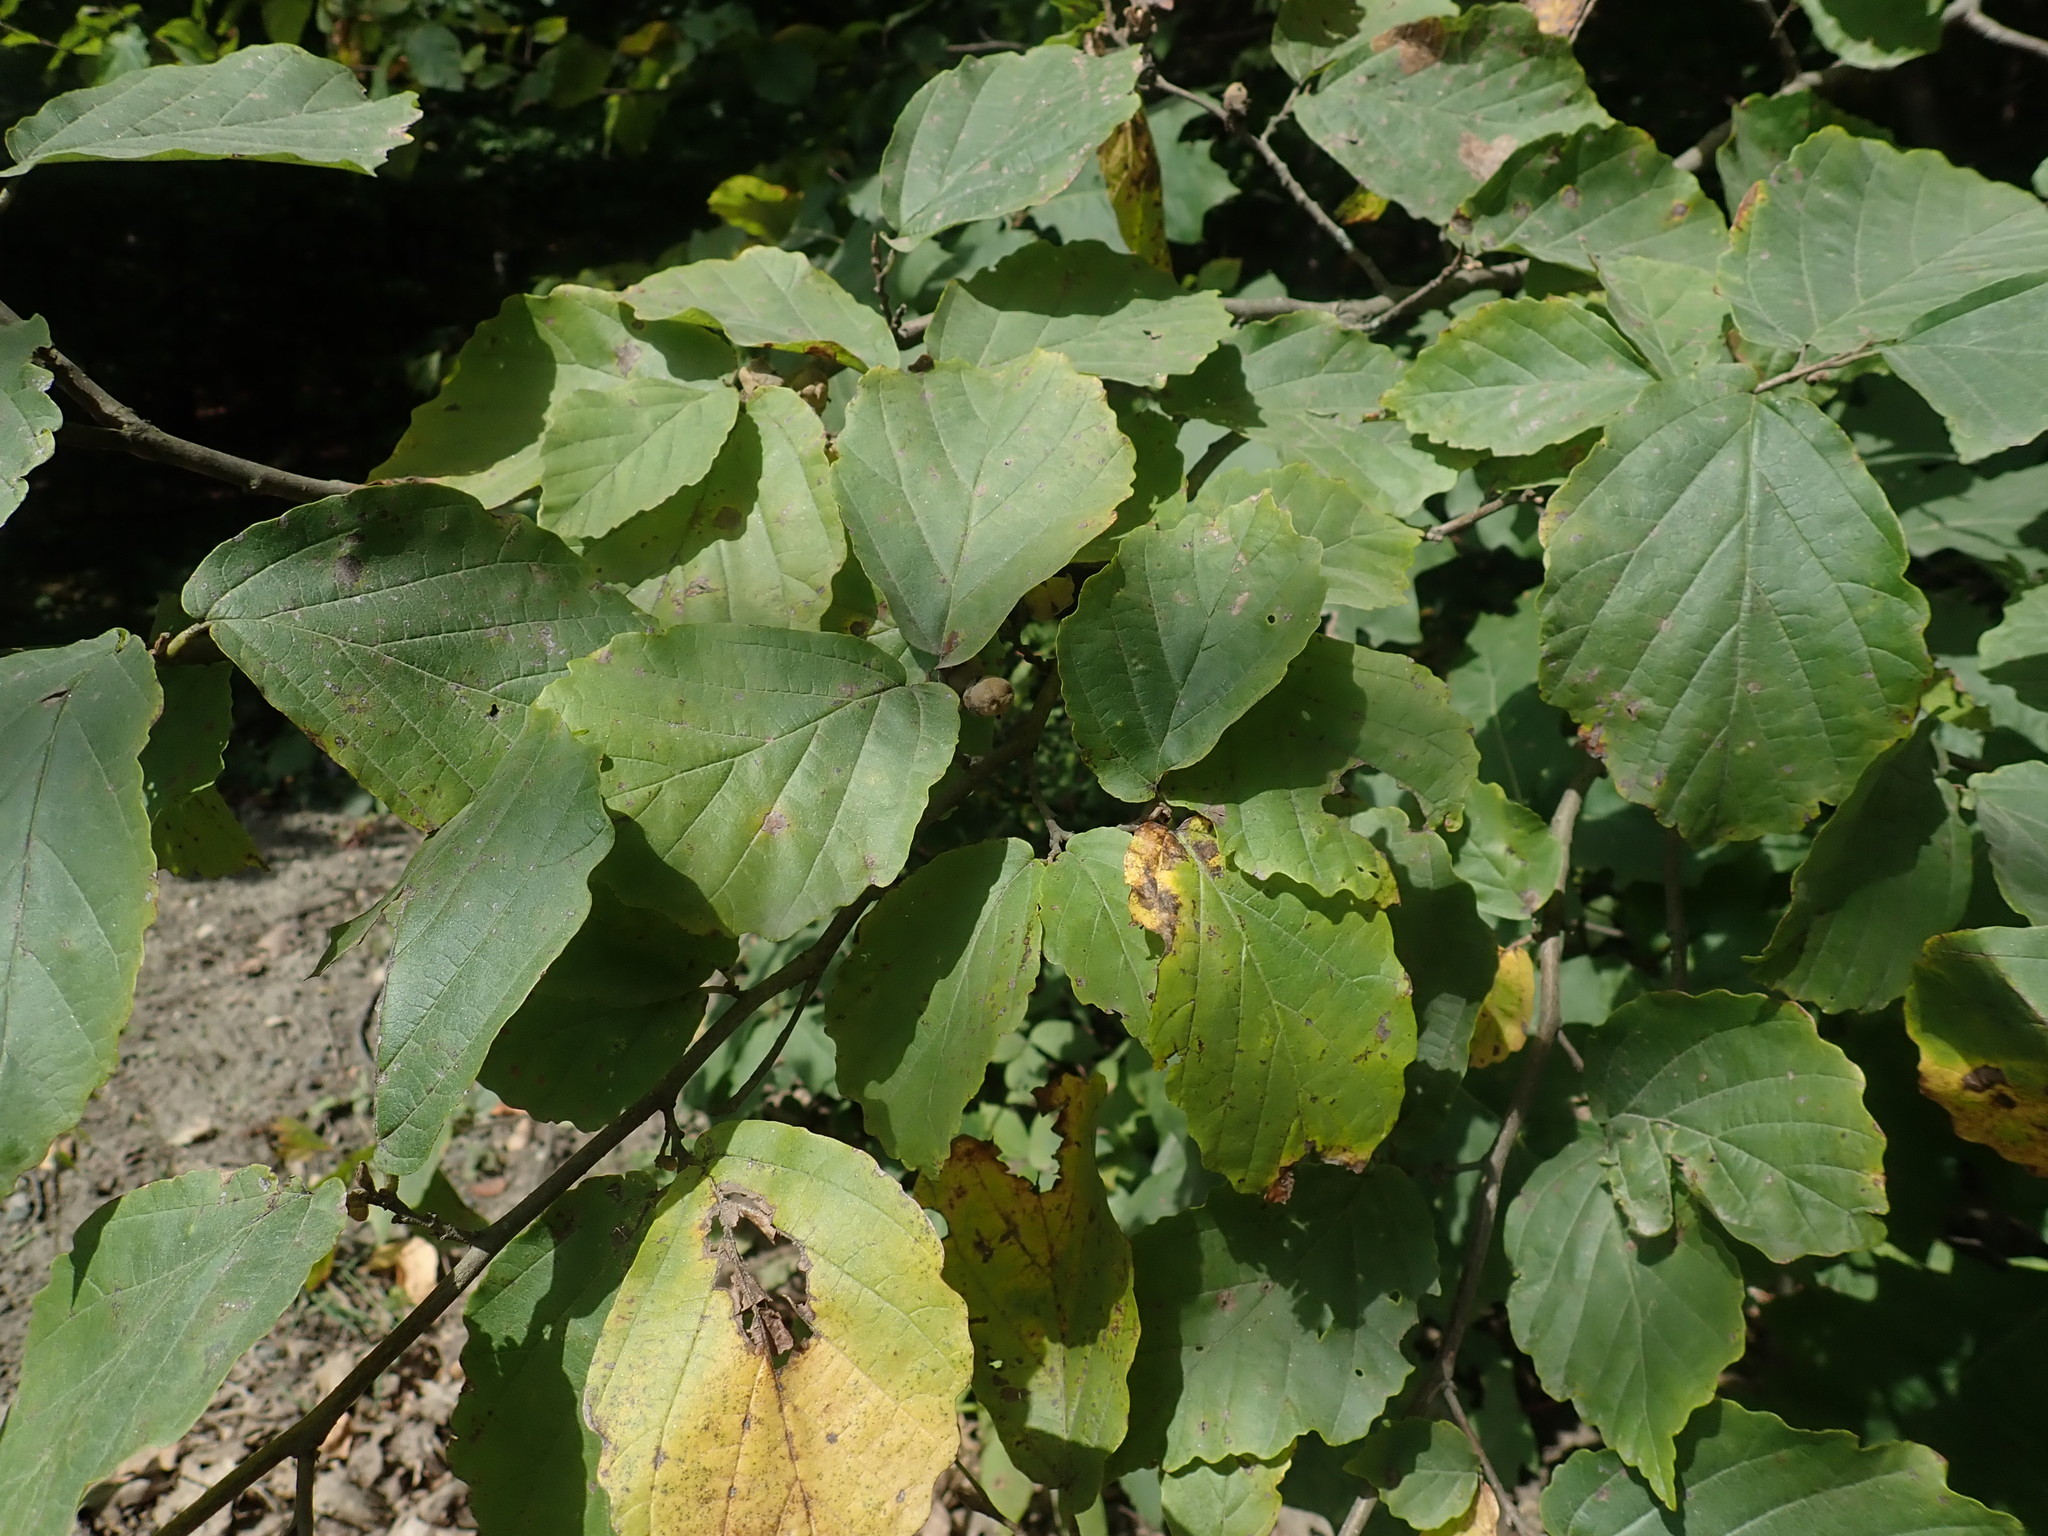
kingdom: Plantae
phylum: Tracheophyta
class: Magnoliopsida
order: Saxifragales
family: Hamamelidaceae
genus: Hamamelis
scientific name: Hamamelis virginiana
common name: Witch-hazel
